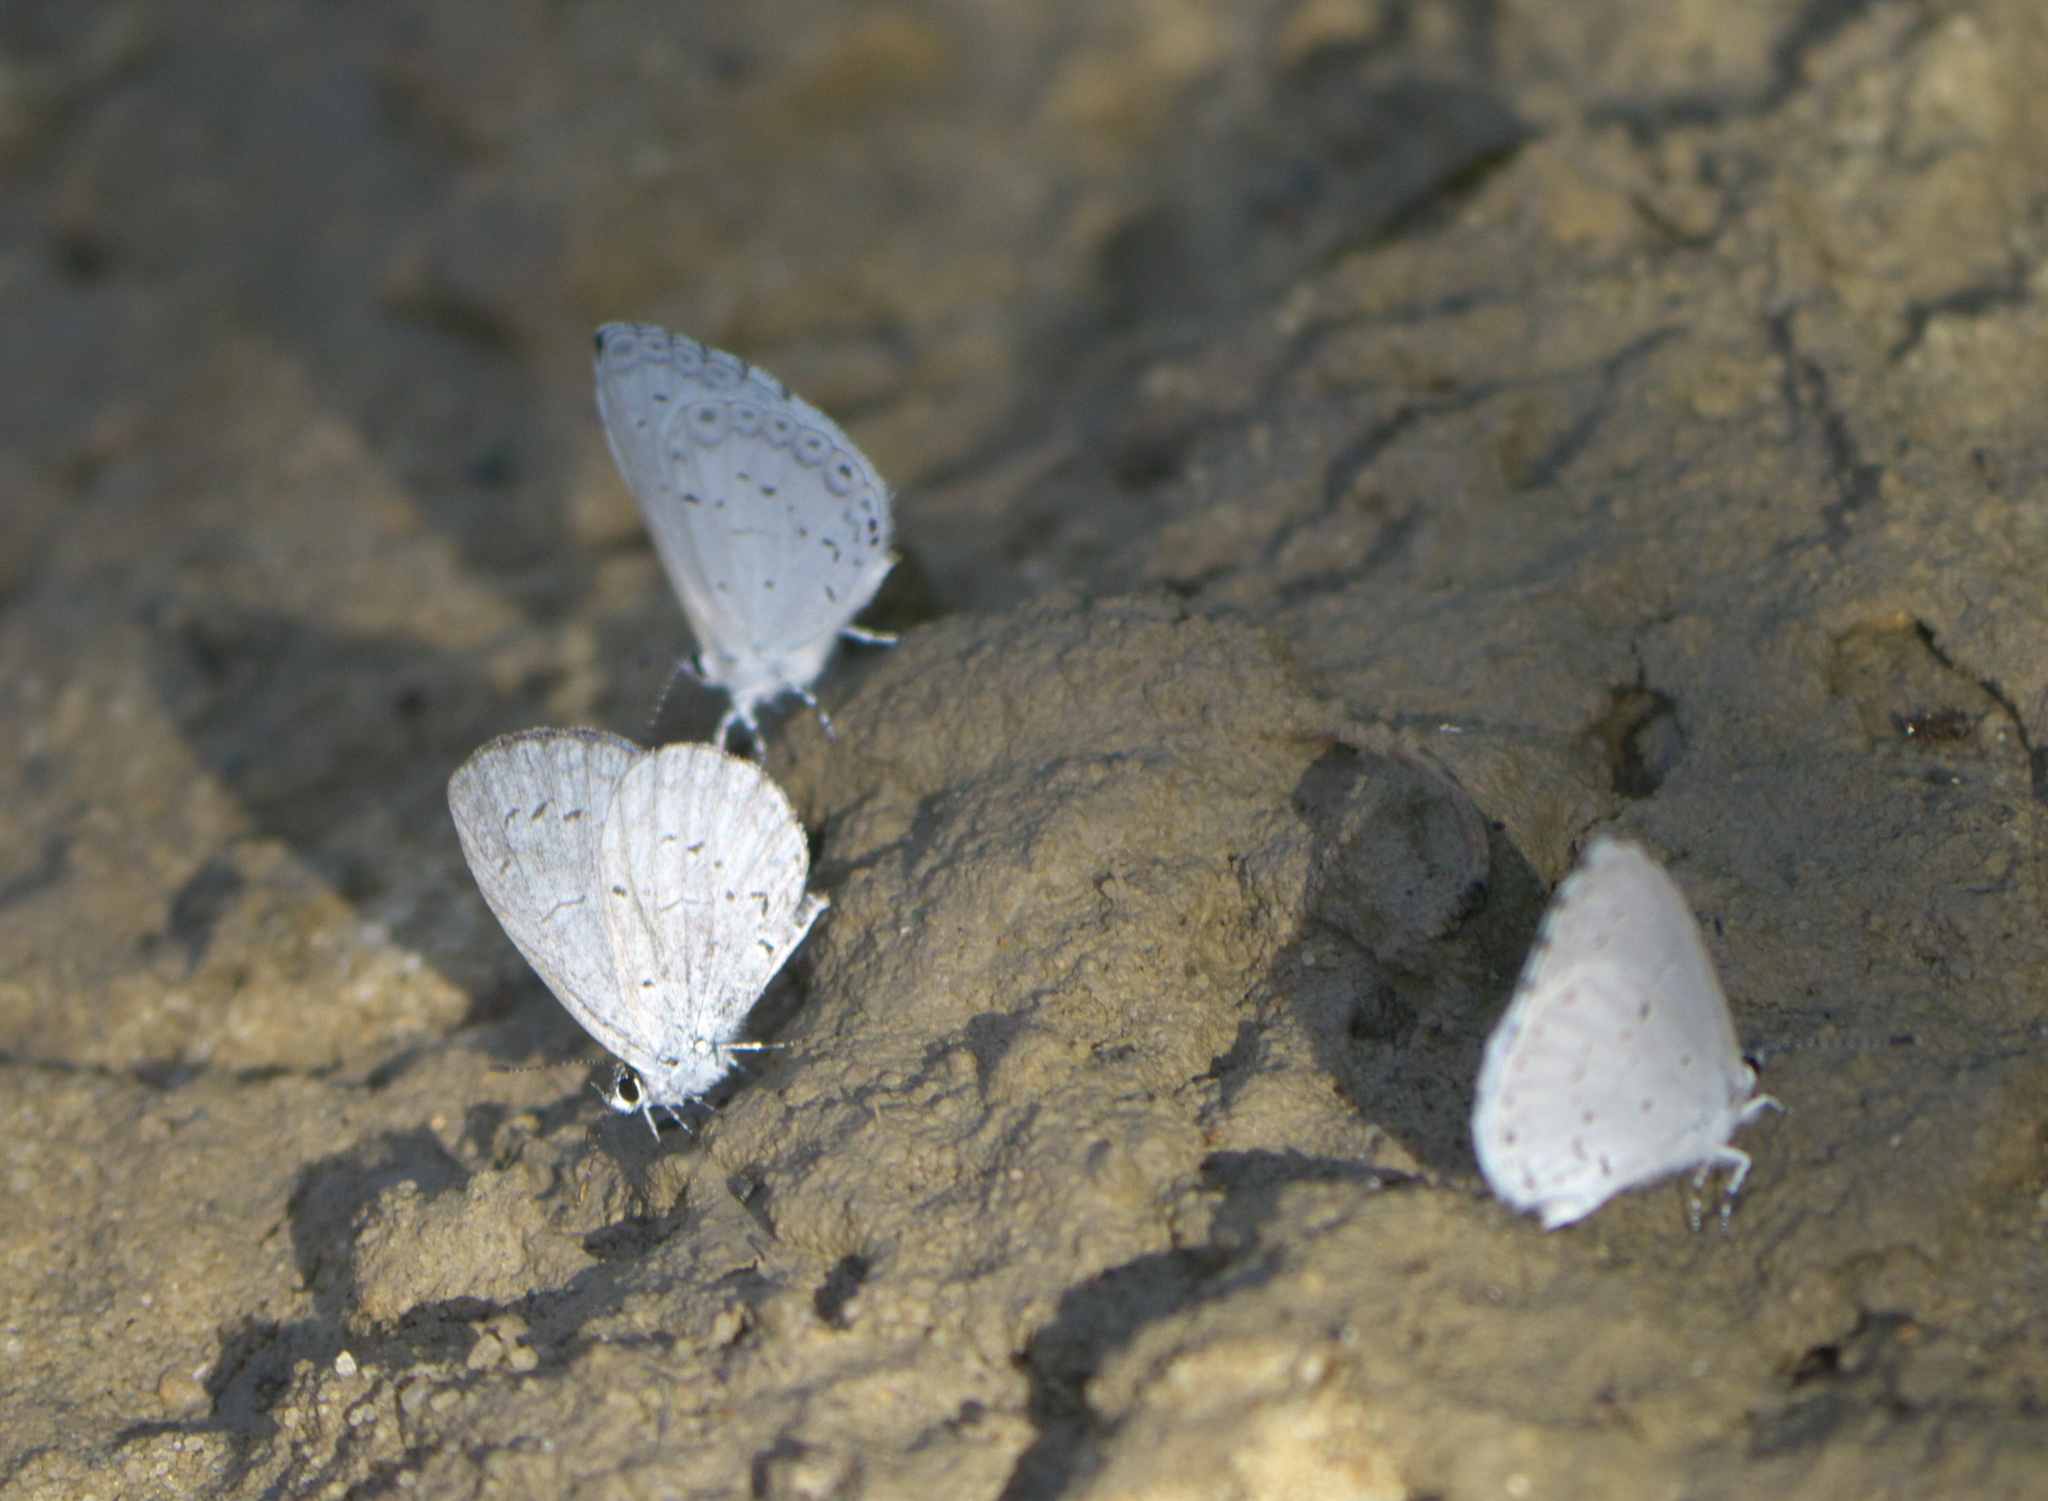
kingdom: Animalia
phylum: Arthropoda
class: Insecta
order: Lepidoptera
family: Lycaenidae
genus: Cyaniris
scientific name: Cyaniris neglecta
